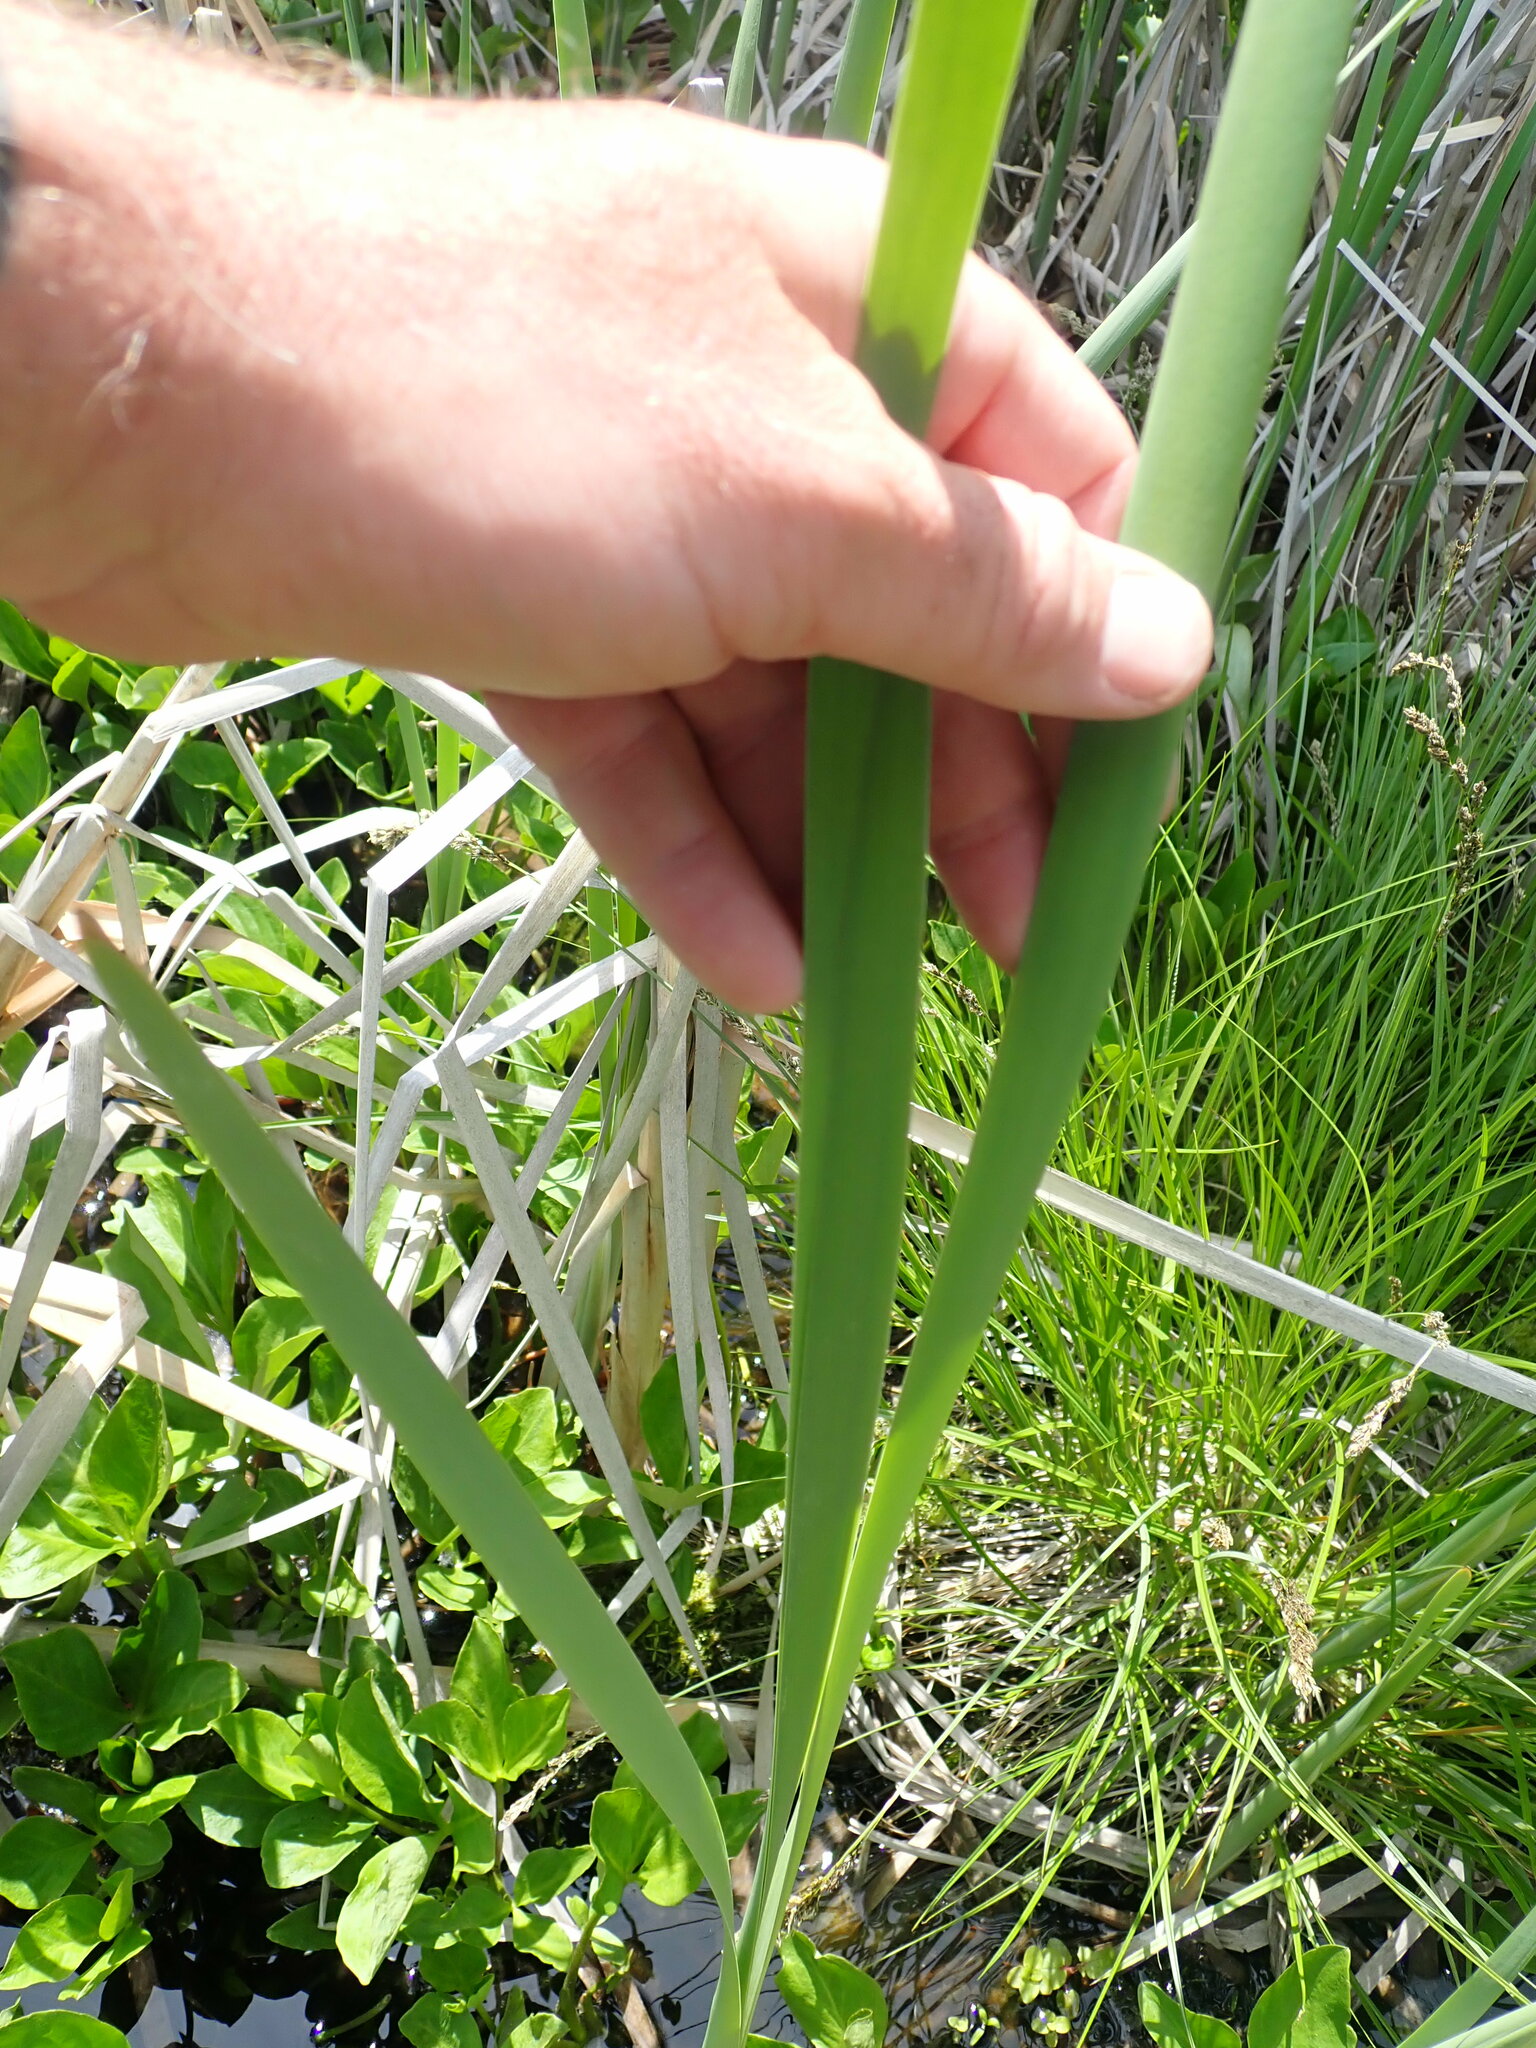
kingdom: Plantae
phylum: Tracheophyta
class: Liliopsida
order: Poales
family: Typhaceae
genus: Typha
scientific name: Typha latifolia
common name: Broadleaf cattail
